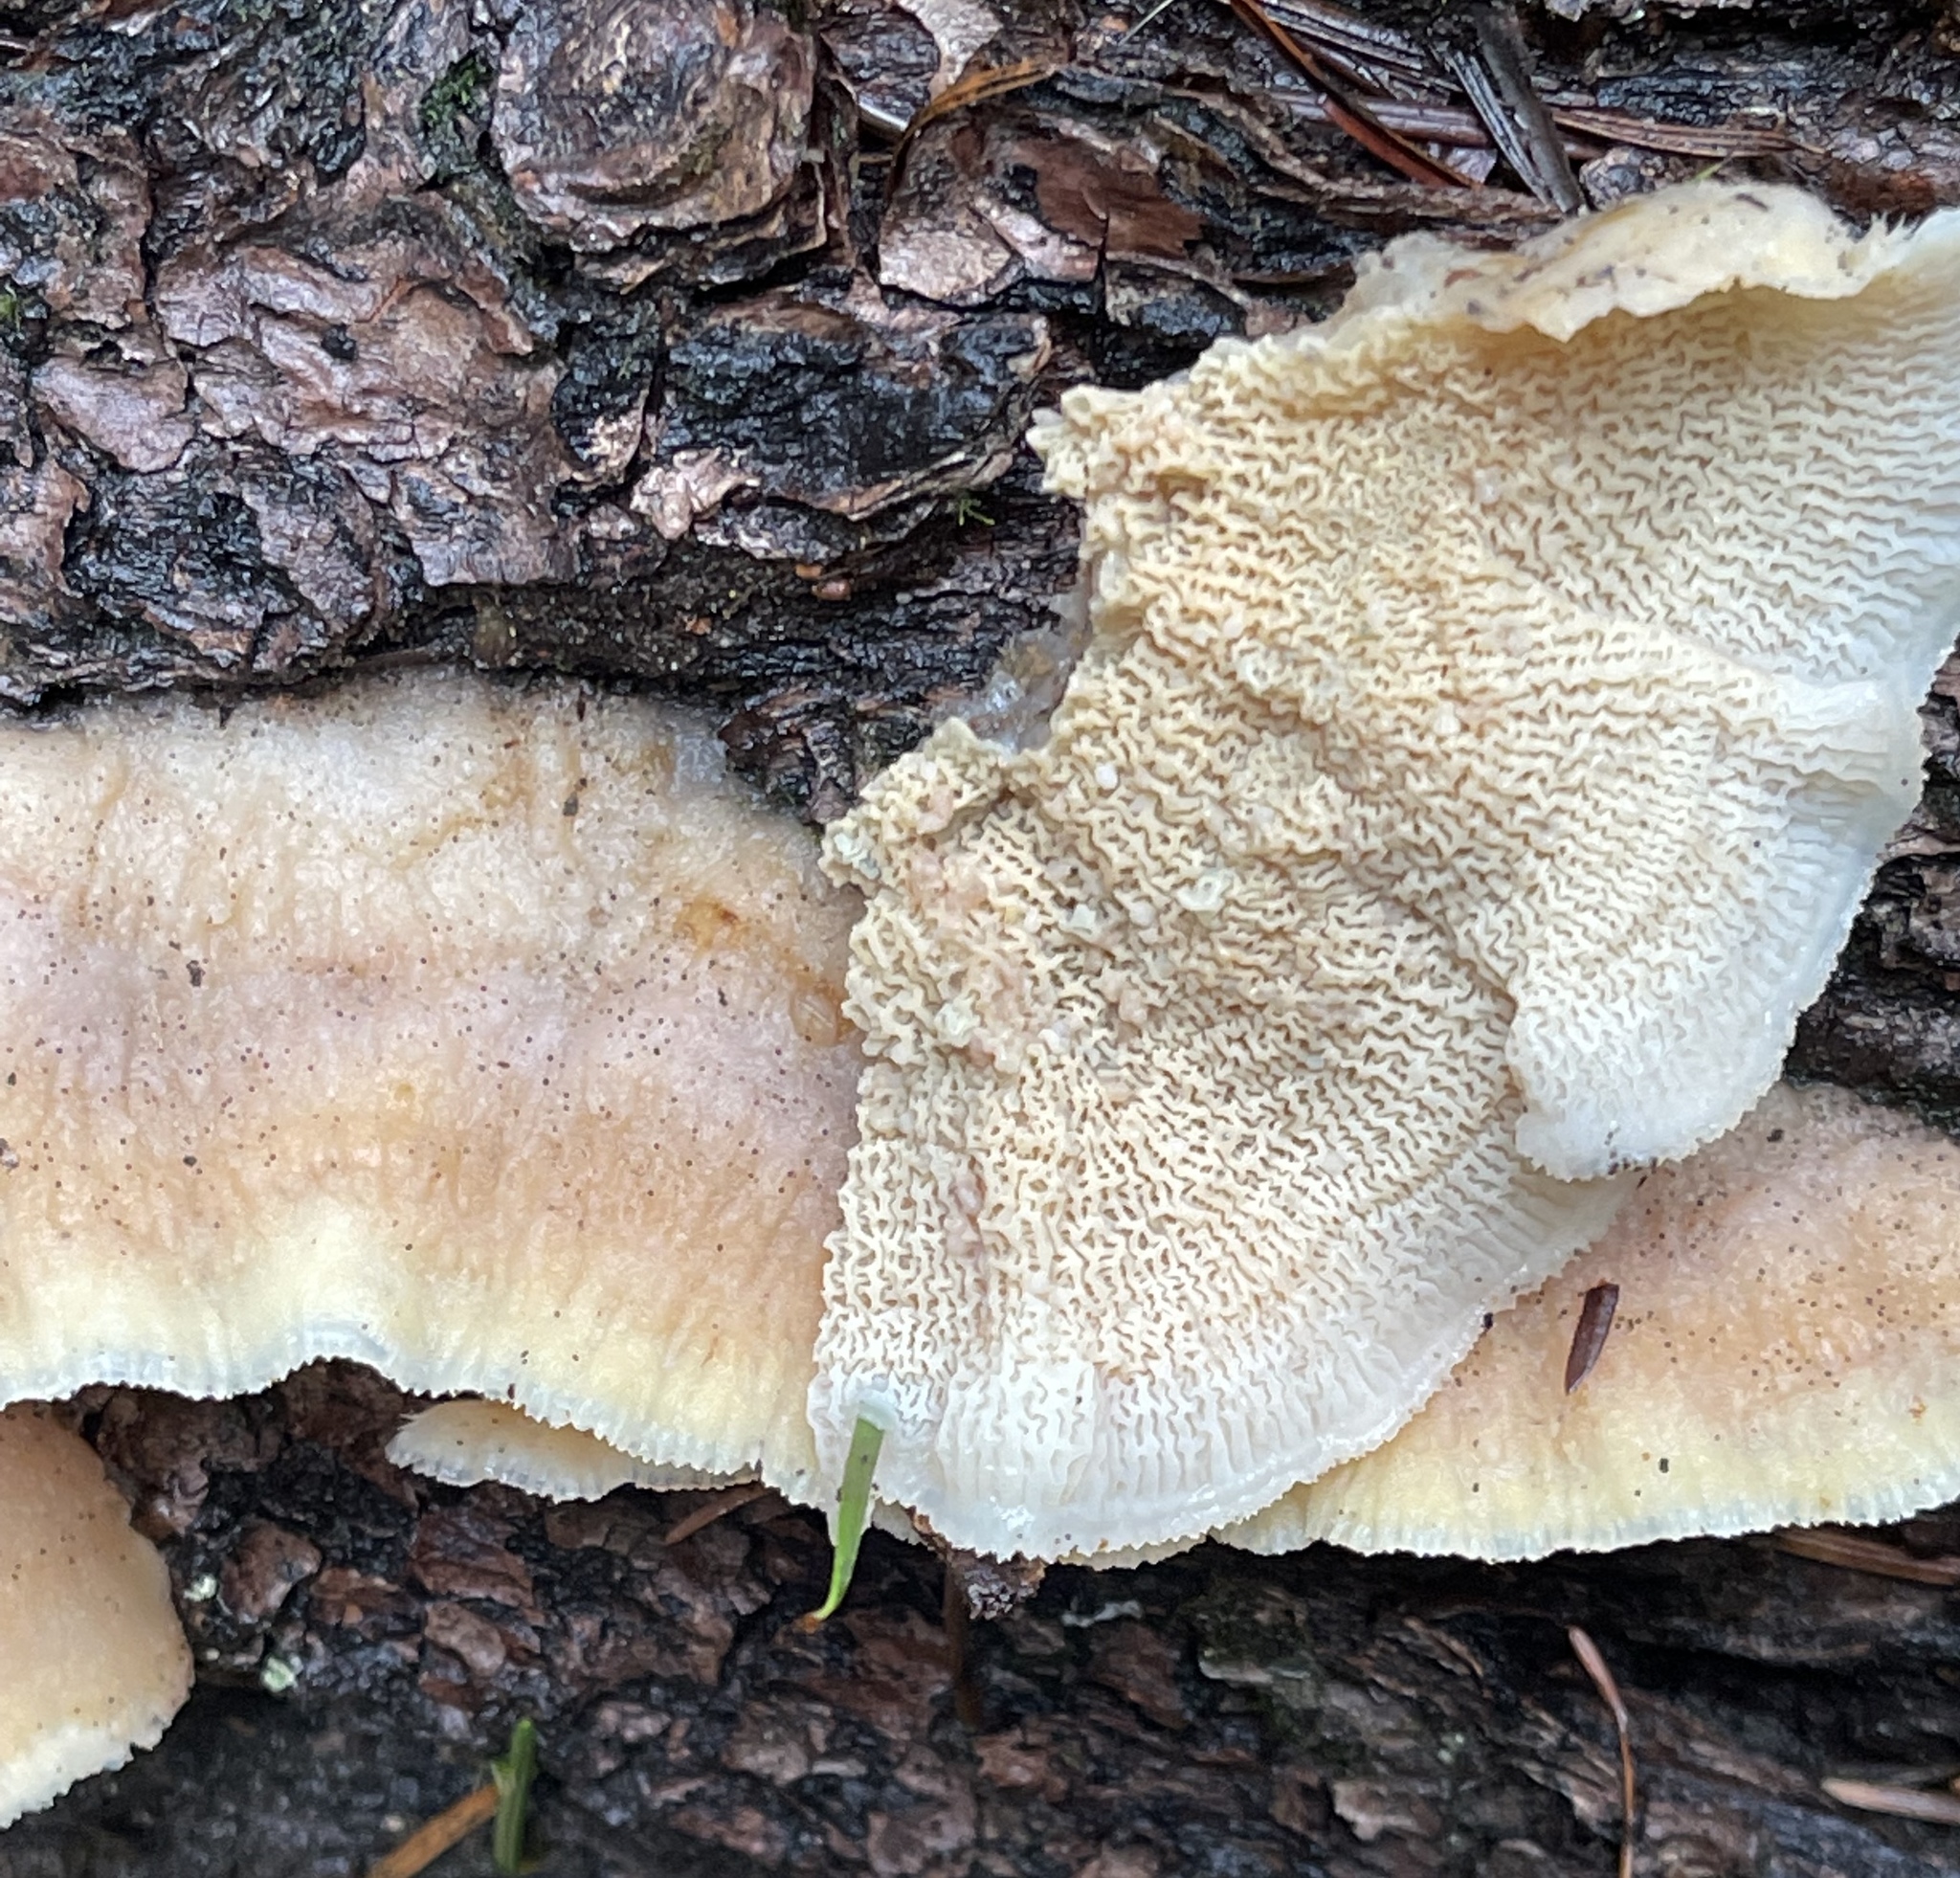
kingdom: Fungi
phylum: Basidiomycota
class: Agaricomycetes
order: Polyporales
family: Meruliaceae
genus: Phlebia
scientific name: Phlebia tremellosa
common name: Jelly rot
